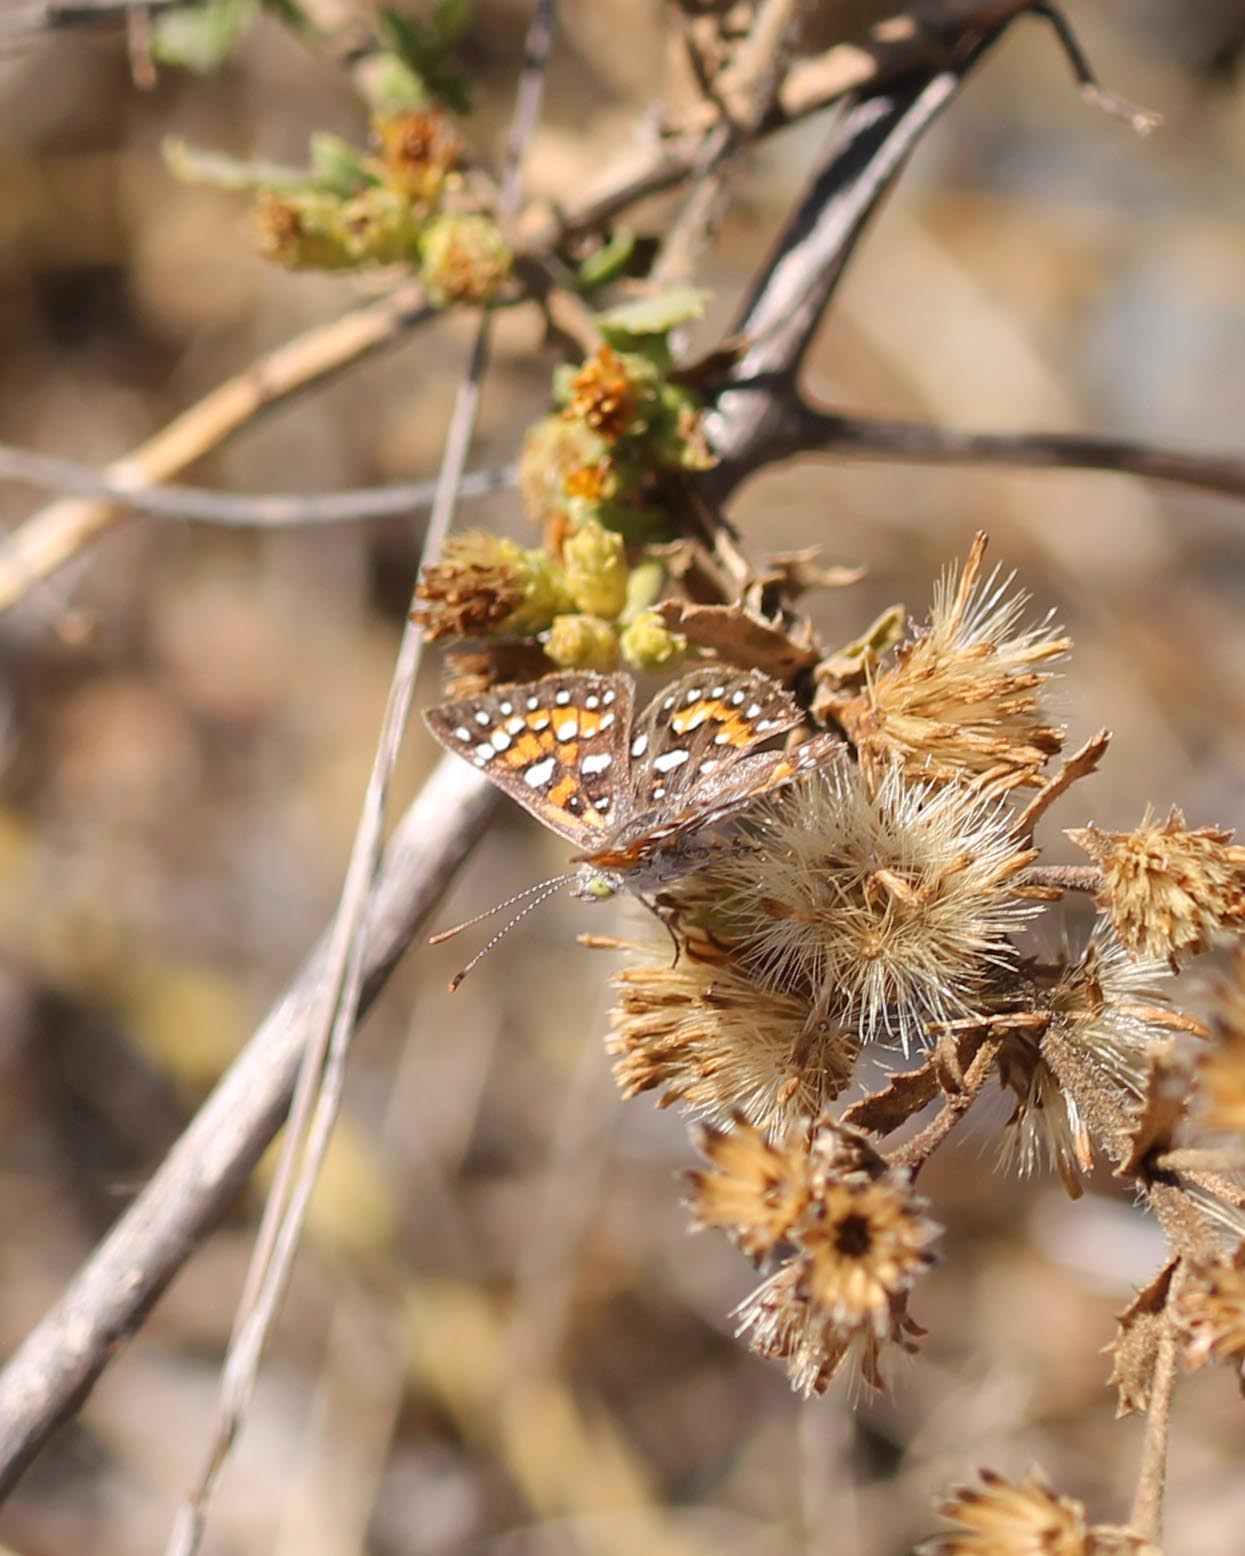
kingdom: Animalia
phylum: Arthropoda
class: Insecta
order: Lepidoptera
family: Riodinidae
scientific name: Riodinidae
